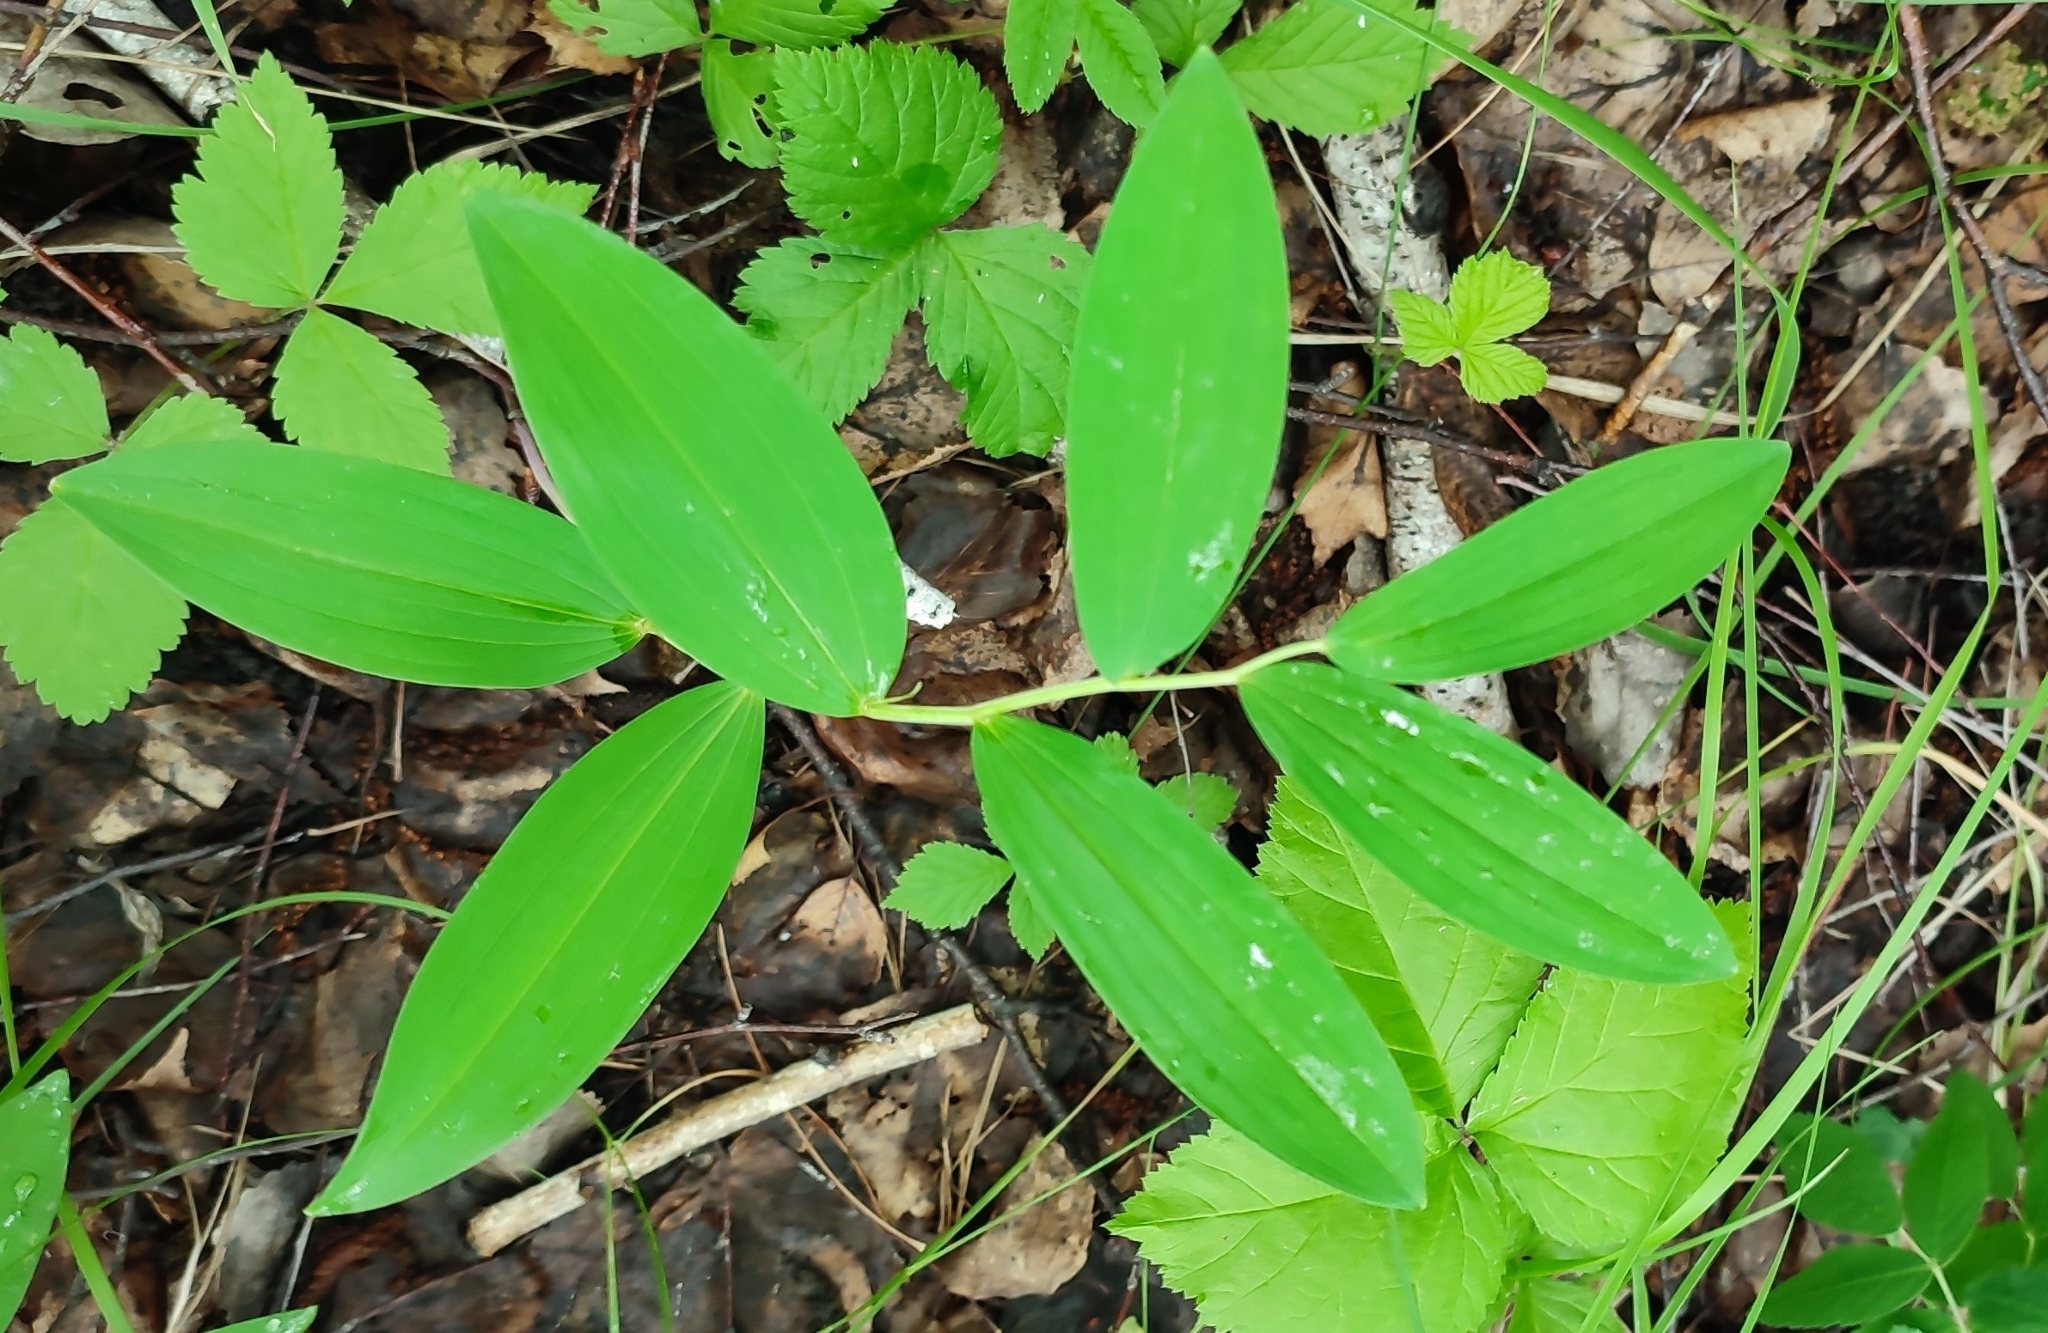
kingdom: Plantae
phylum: Tracheophyta
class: Liliopsida
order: Asparagales
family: Asparagaceae
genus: Polygonatum
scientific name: Polygonatum odoratum
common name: Angular solomon's-seal
